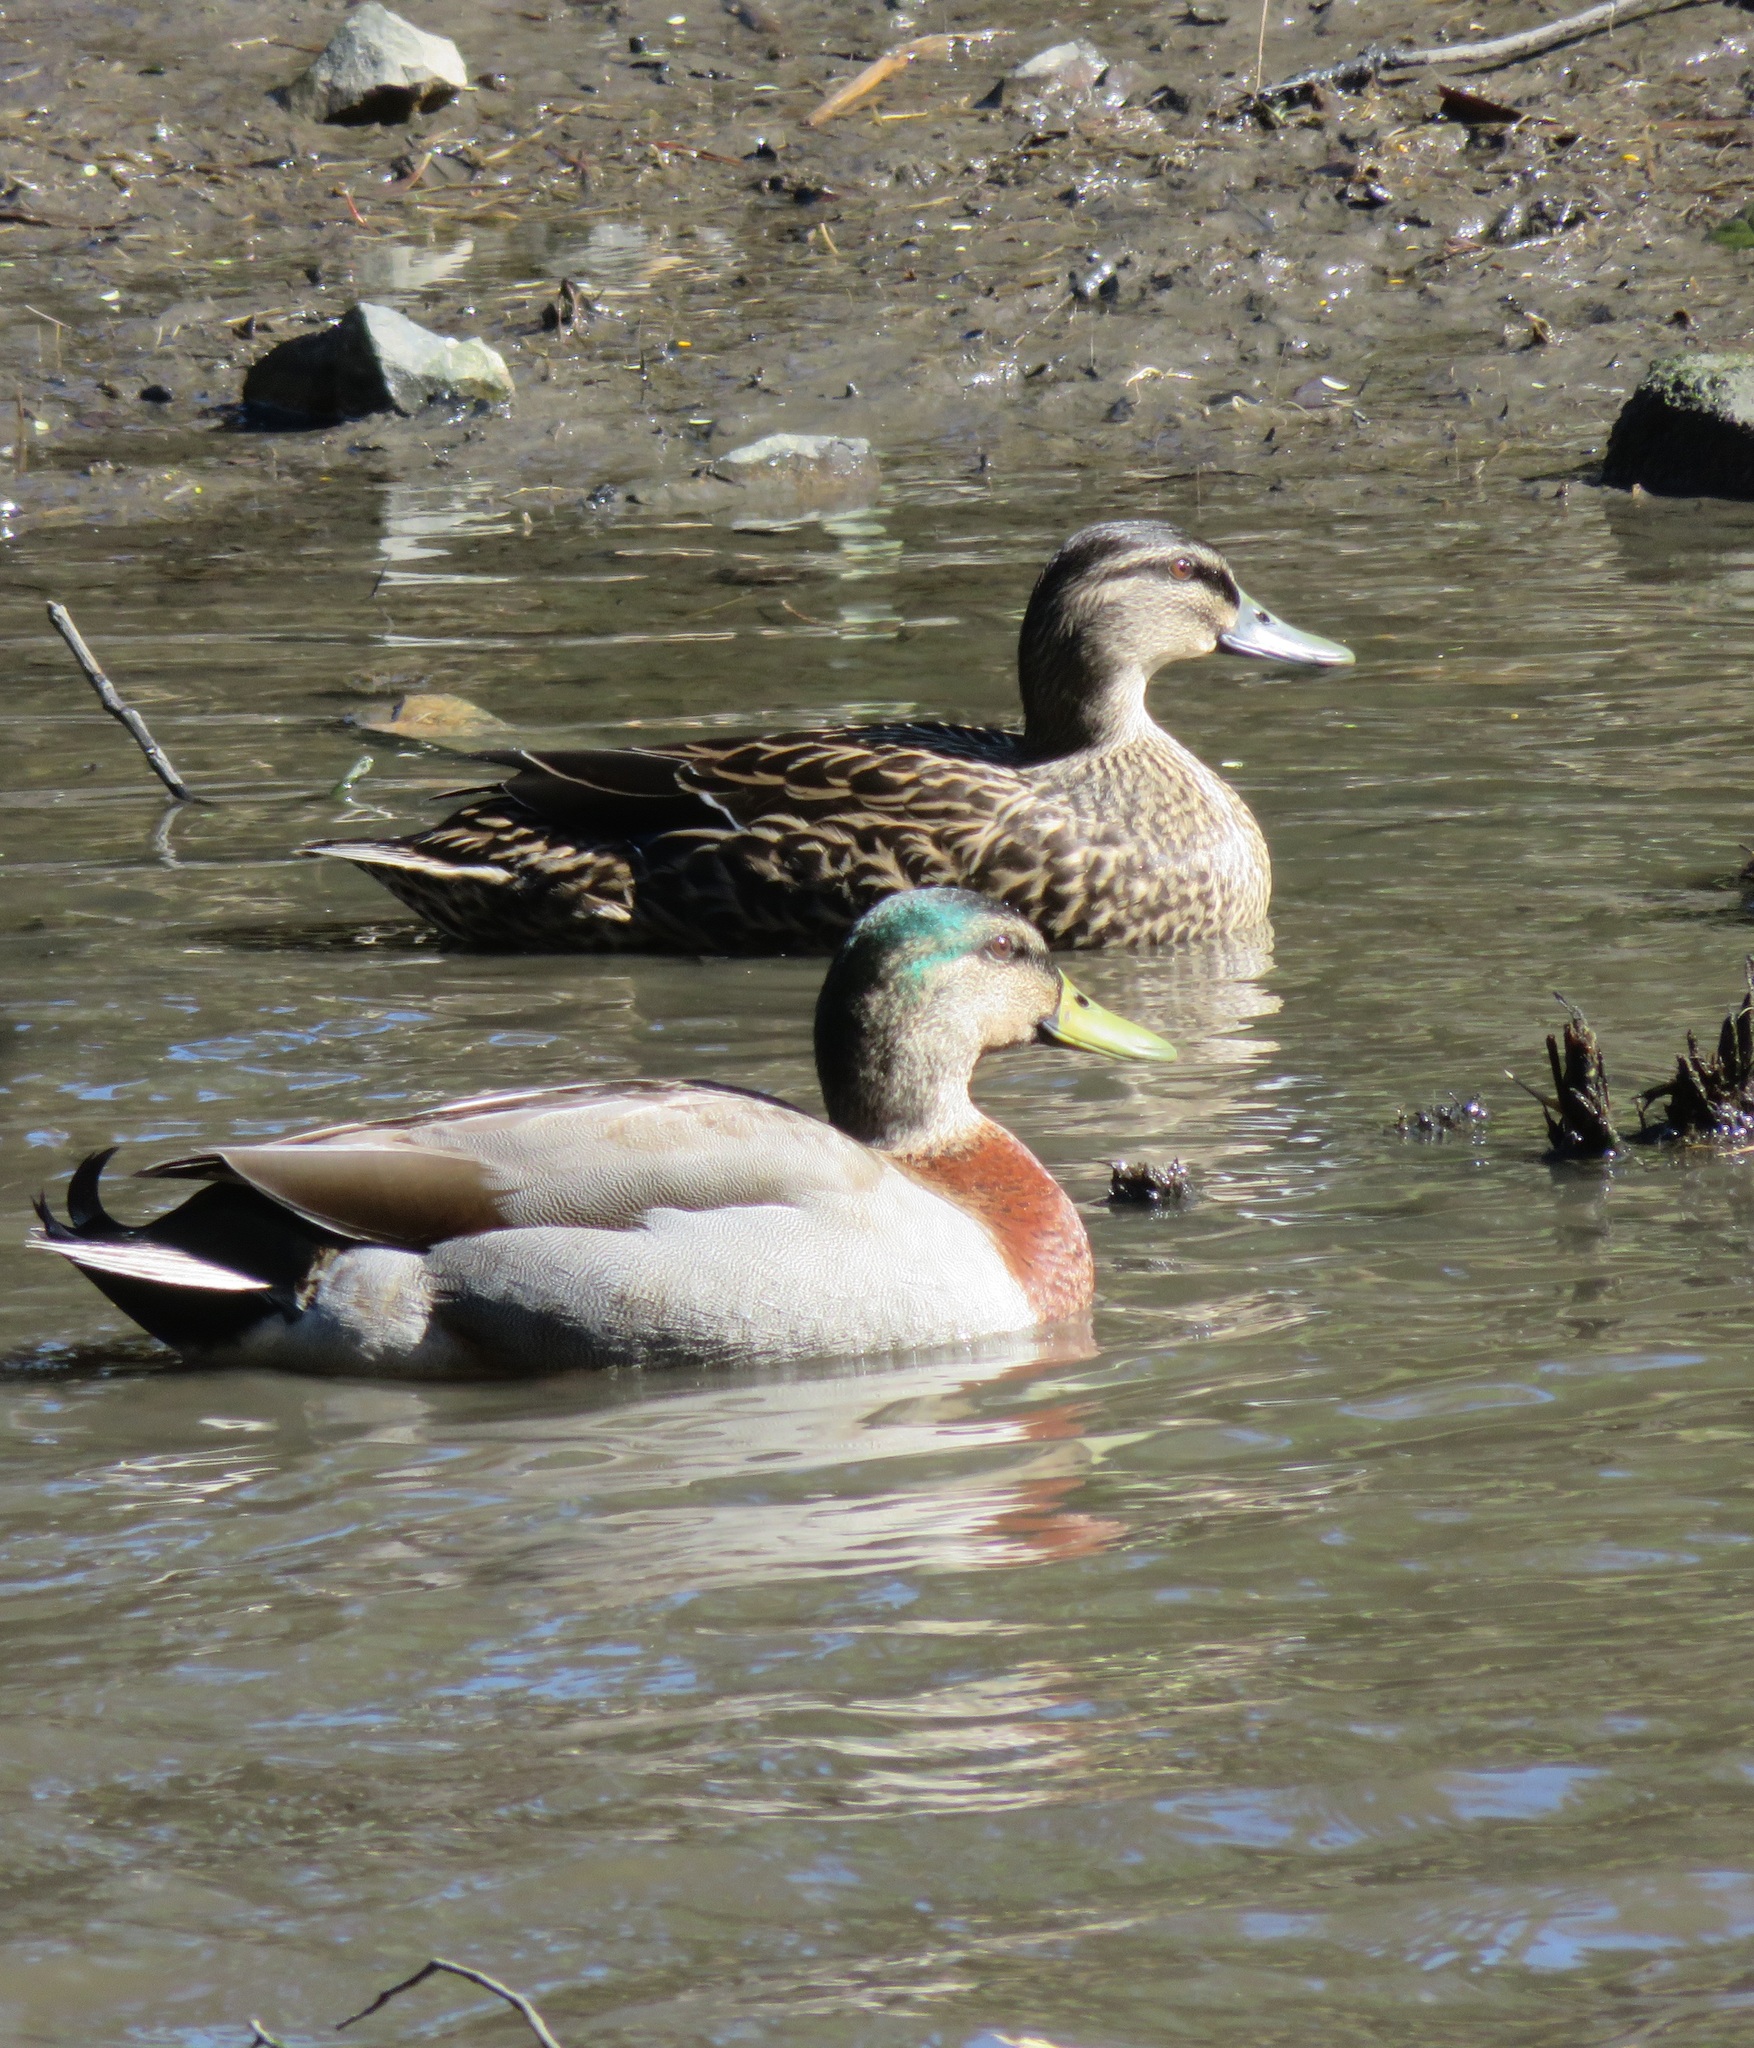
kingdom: Animalia
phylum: Chordata
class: Aves
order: Anseriformes
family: Anatidae
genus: Anas
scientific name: Anas
